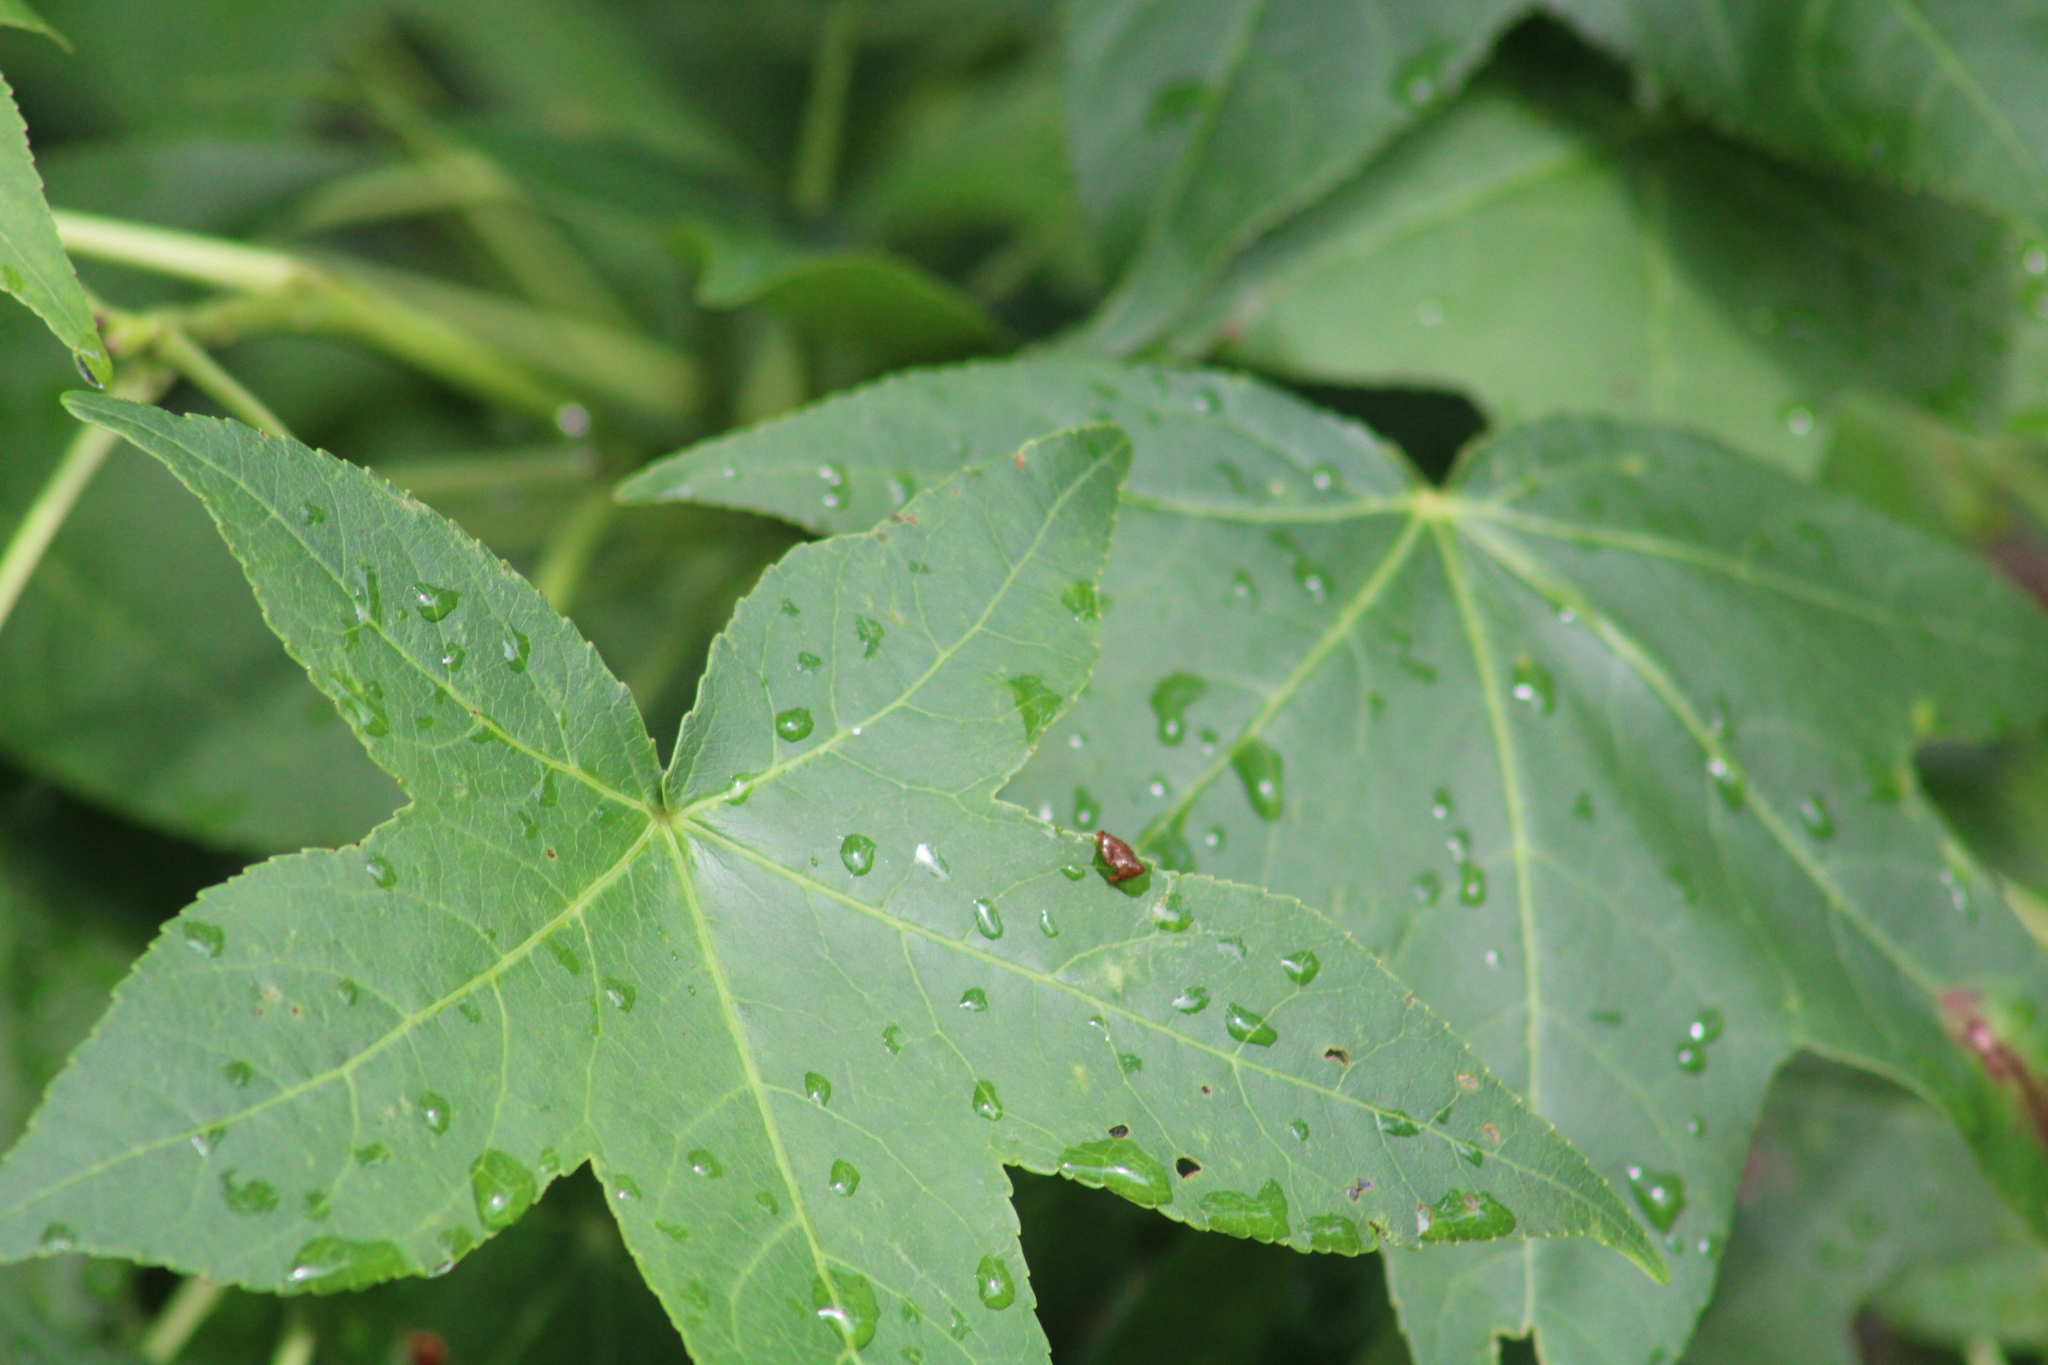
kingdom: Plantae
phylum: Tracheophyta
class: Magnoliopsida
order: Saxifragales
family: Altingiaceae
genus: Liquidambar
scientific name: Liquidambar styraciflua
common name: Sweet gum
